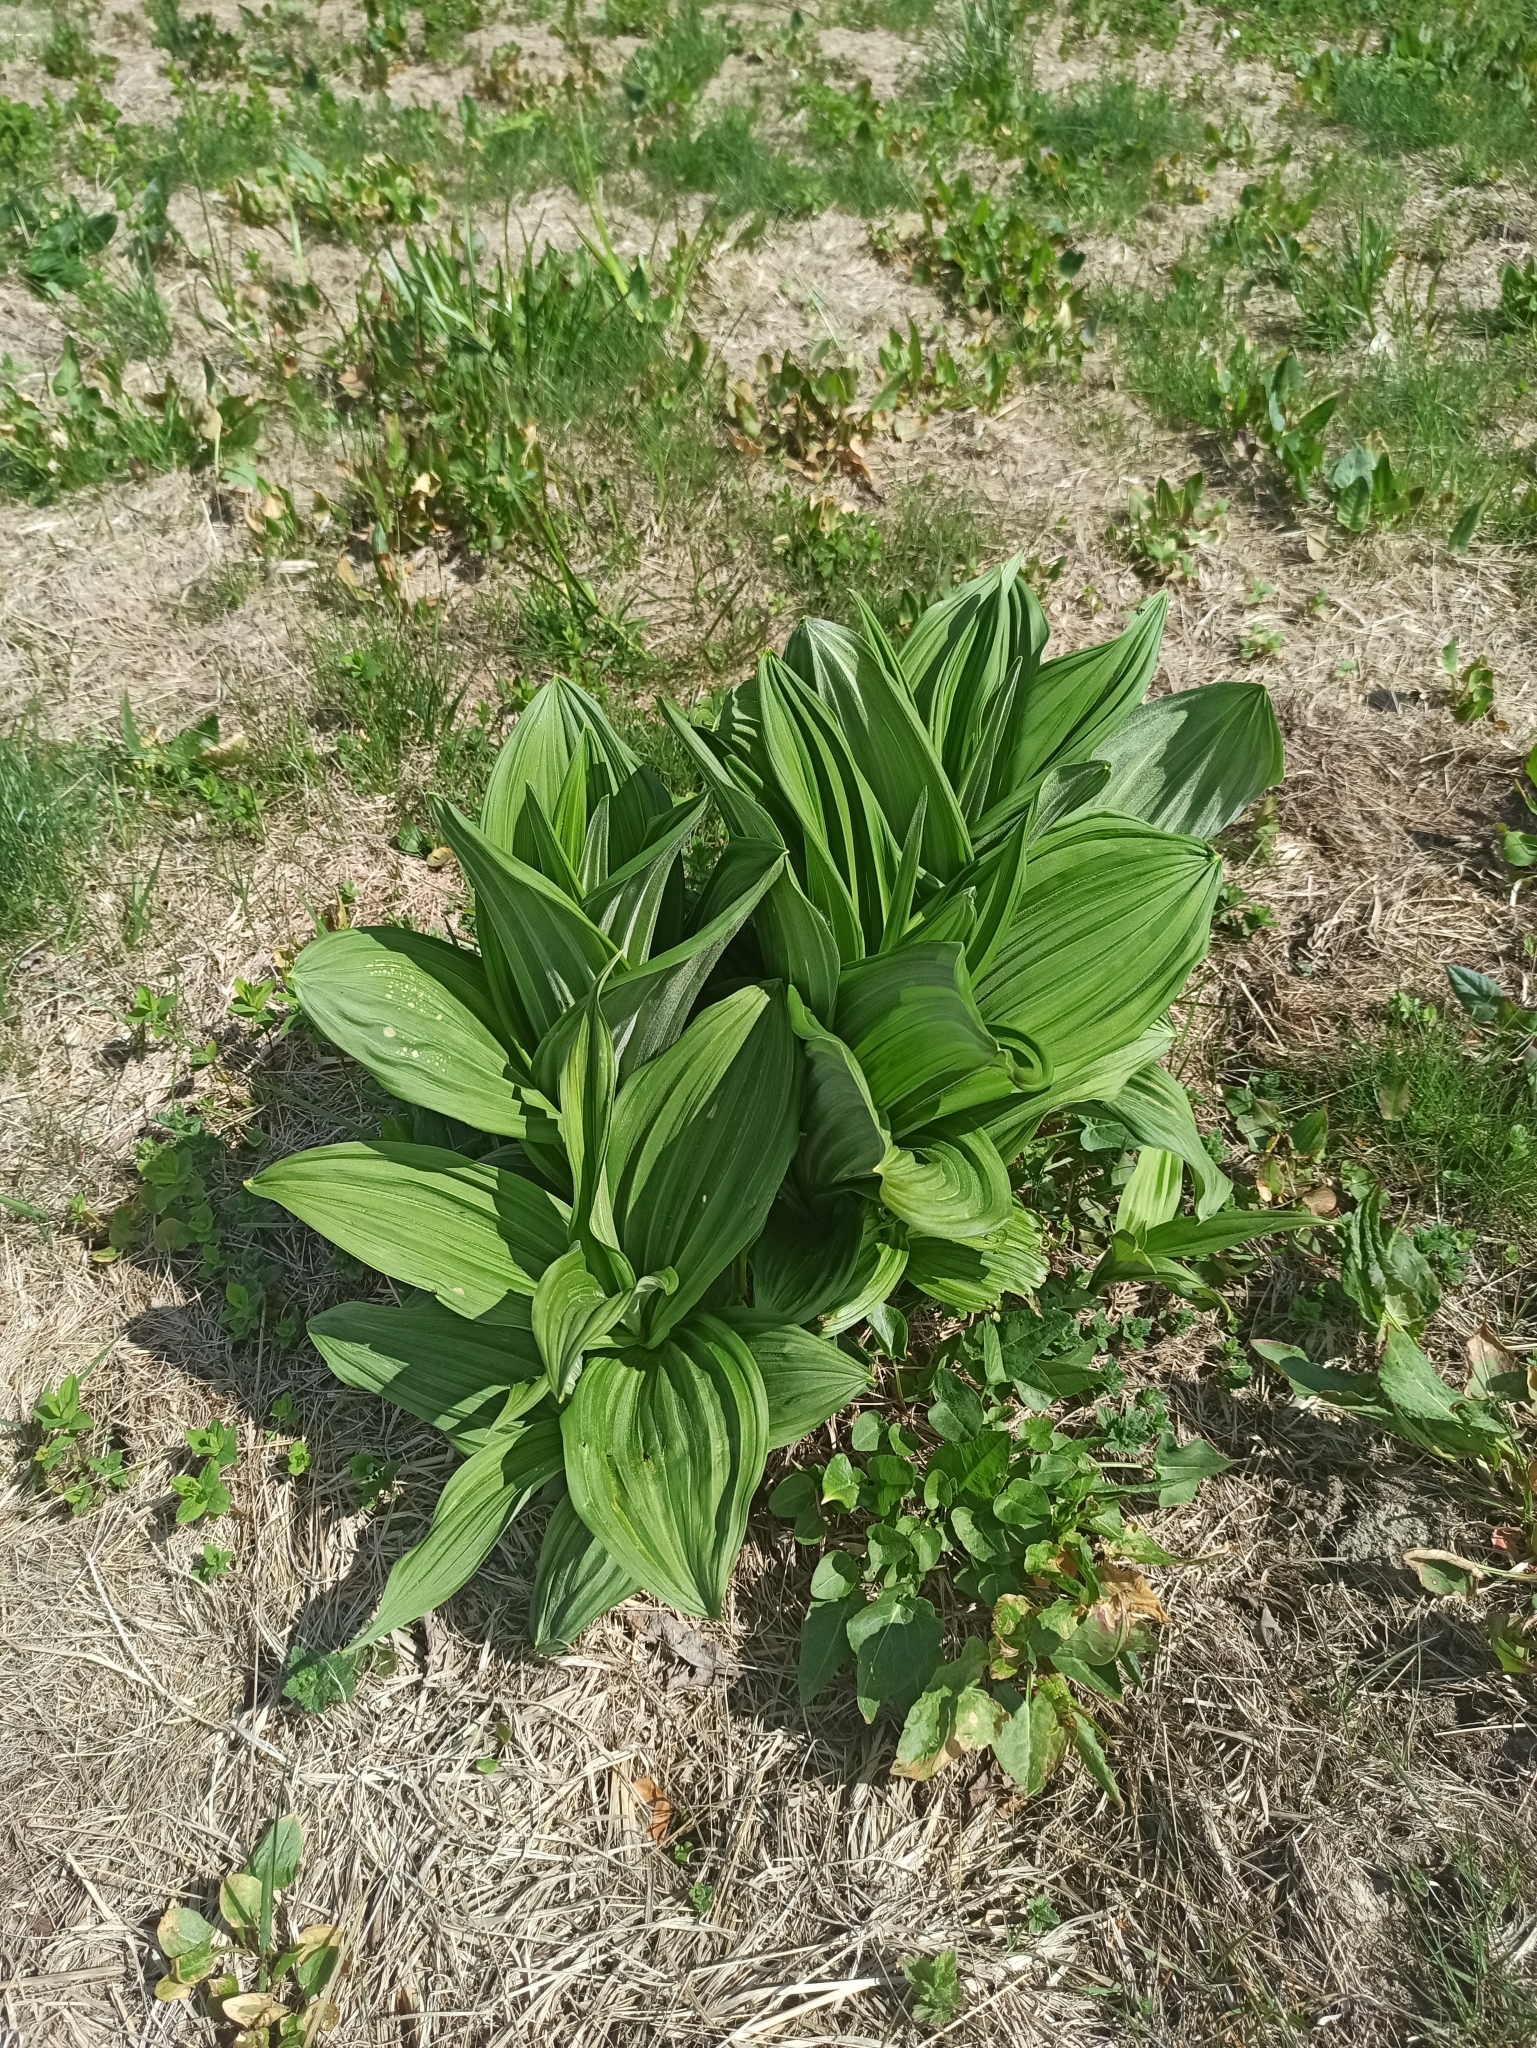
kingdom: Plantae
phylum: Tracheophyta
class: Liliopsida
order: Liliales
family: Melanthiaceae
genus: Veratrum
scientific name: Veratrum lobelianum
